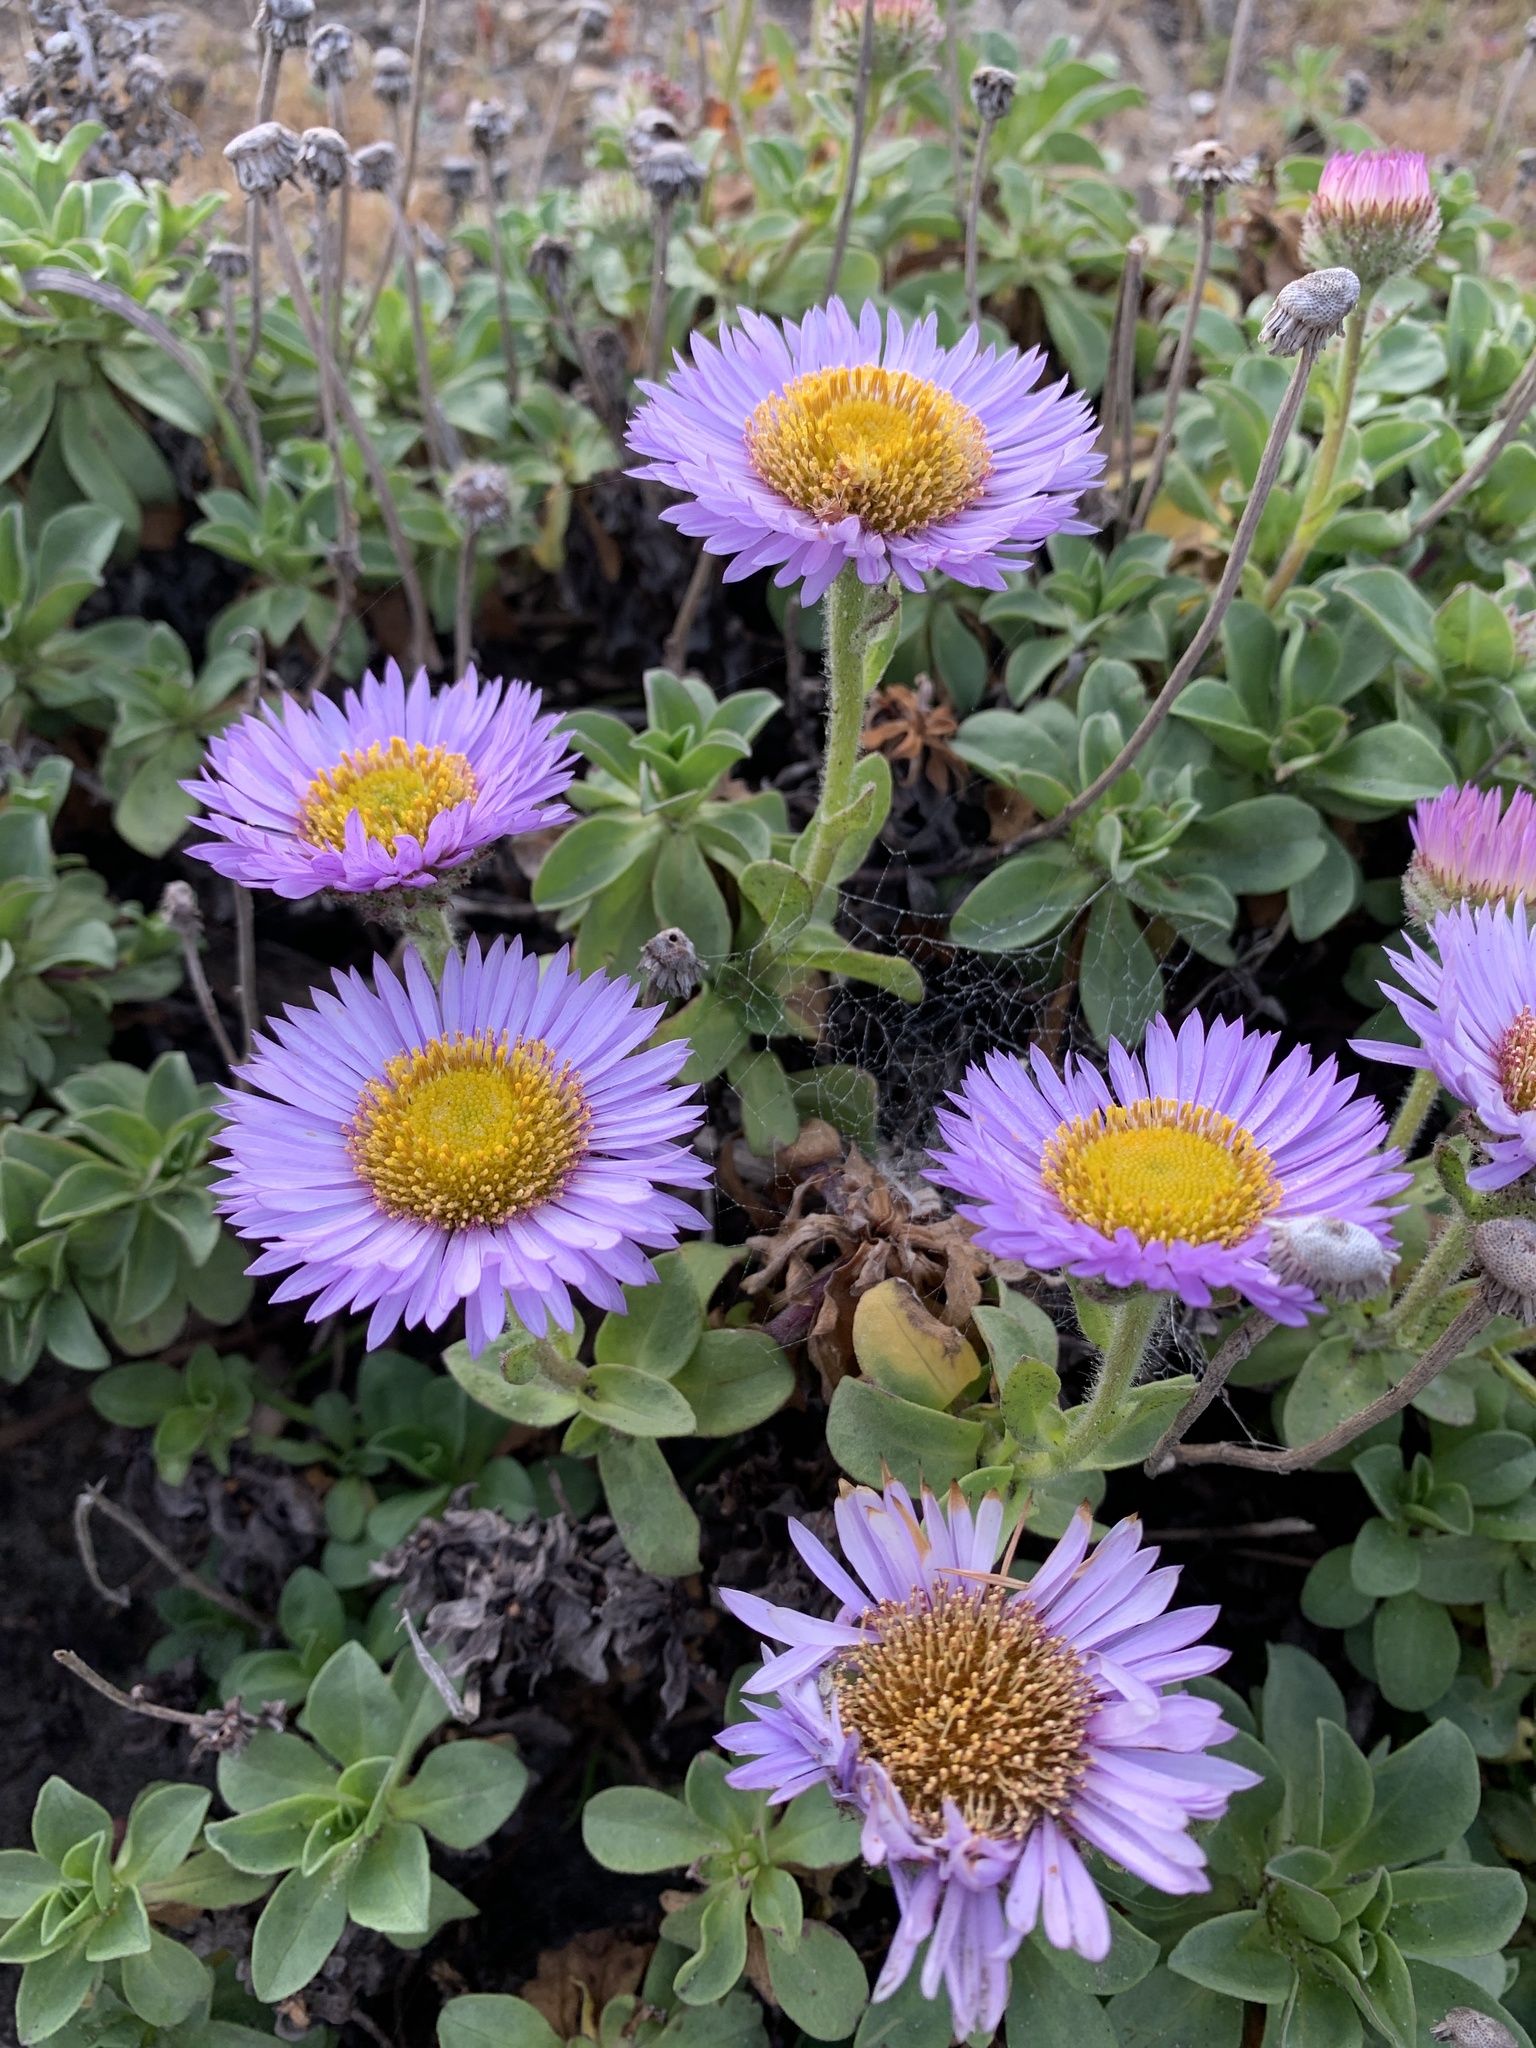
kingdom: Plantae
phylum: Tracheophyta
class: Magnoliopsida
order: Asterales
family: Asteraceae
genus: Erigeron
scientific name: Erigeron glaucus
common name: Seaside daisy
